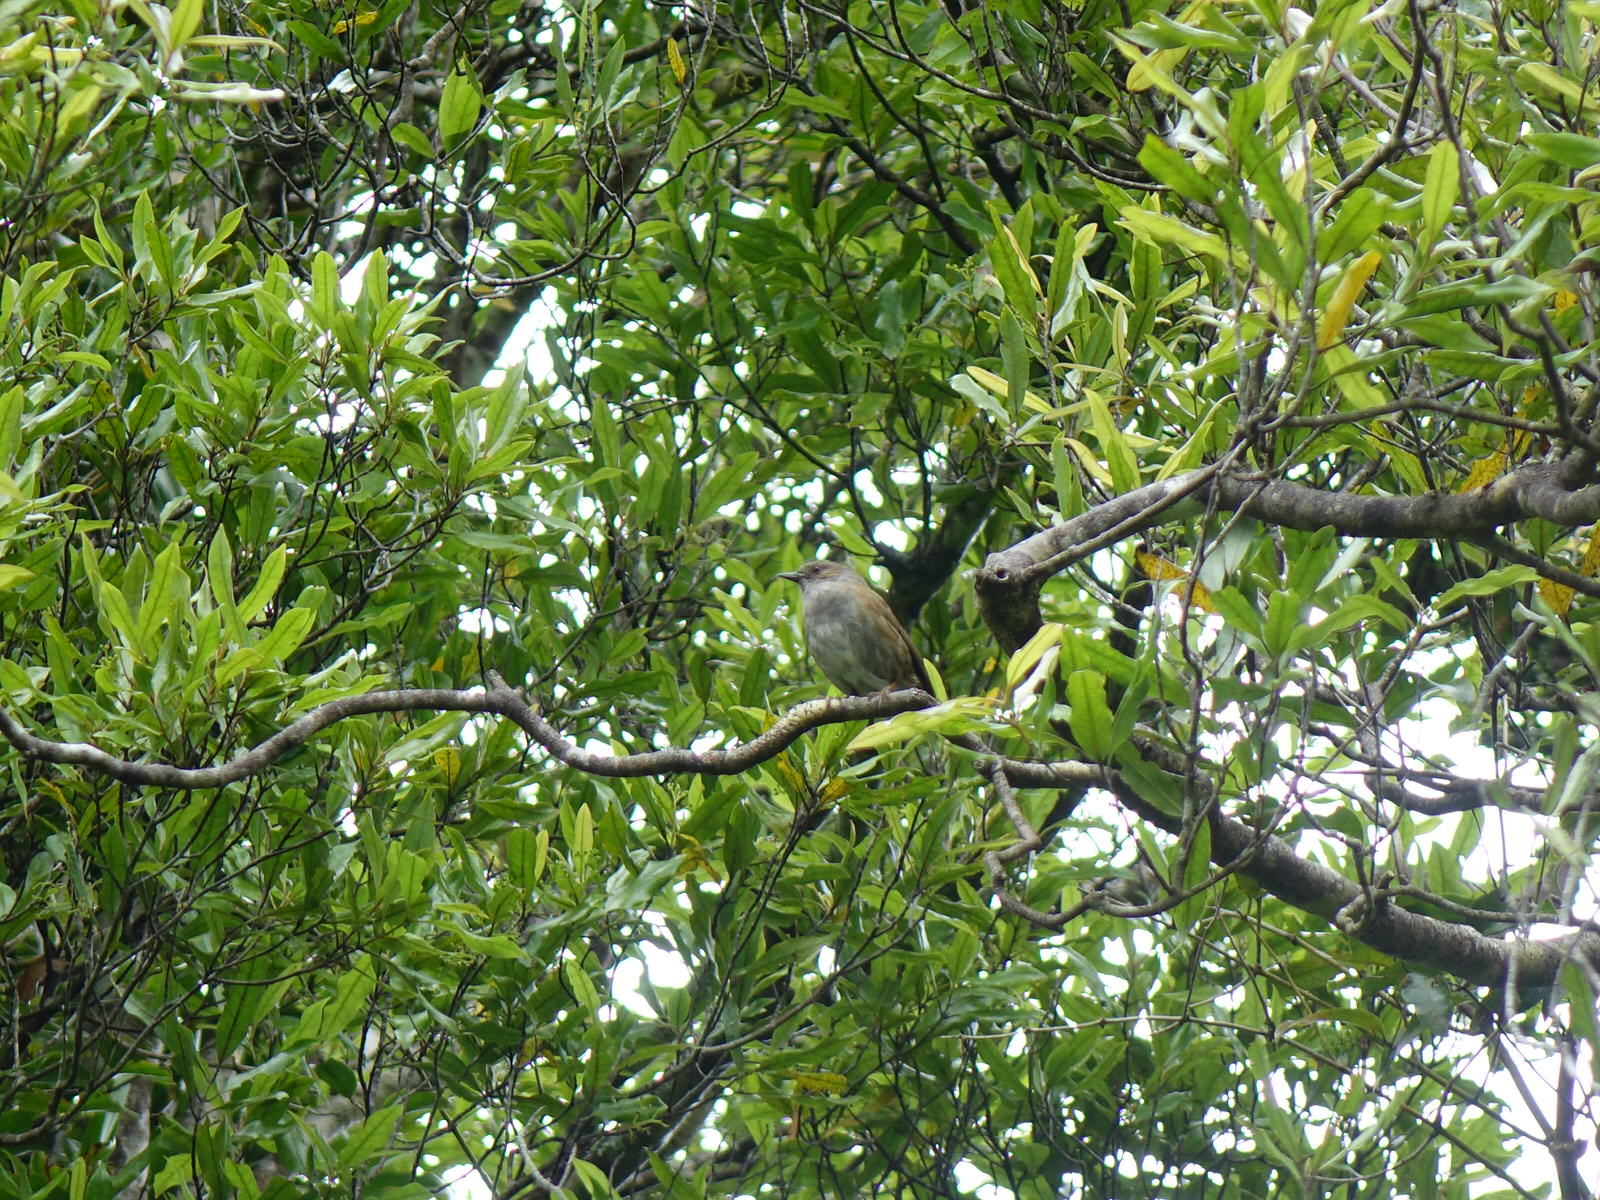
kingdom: Animalia
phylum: Chordata
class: Aves
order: Passeriformes
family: Prunellidae
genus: Prunella
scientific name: Prunella modularis
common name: Dunnock
